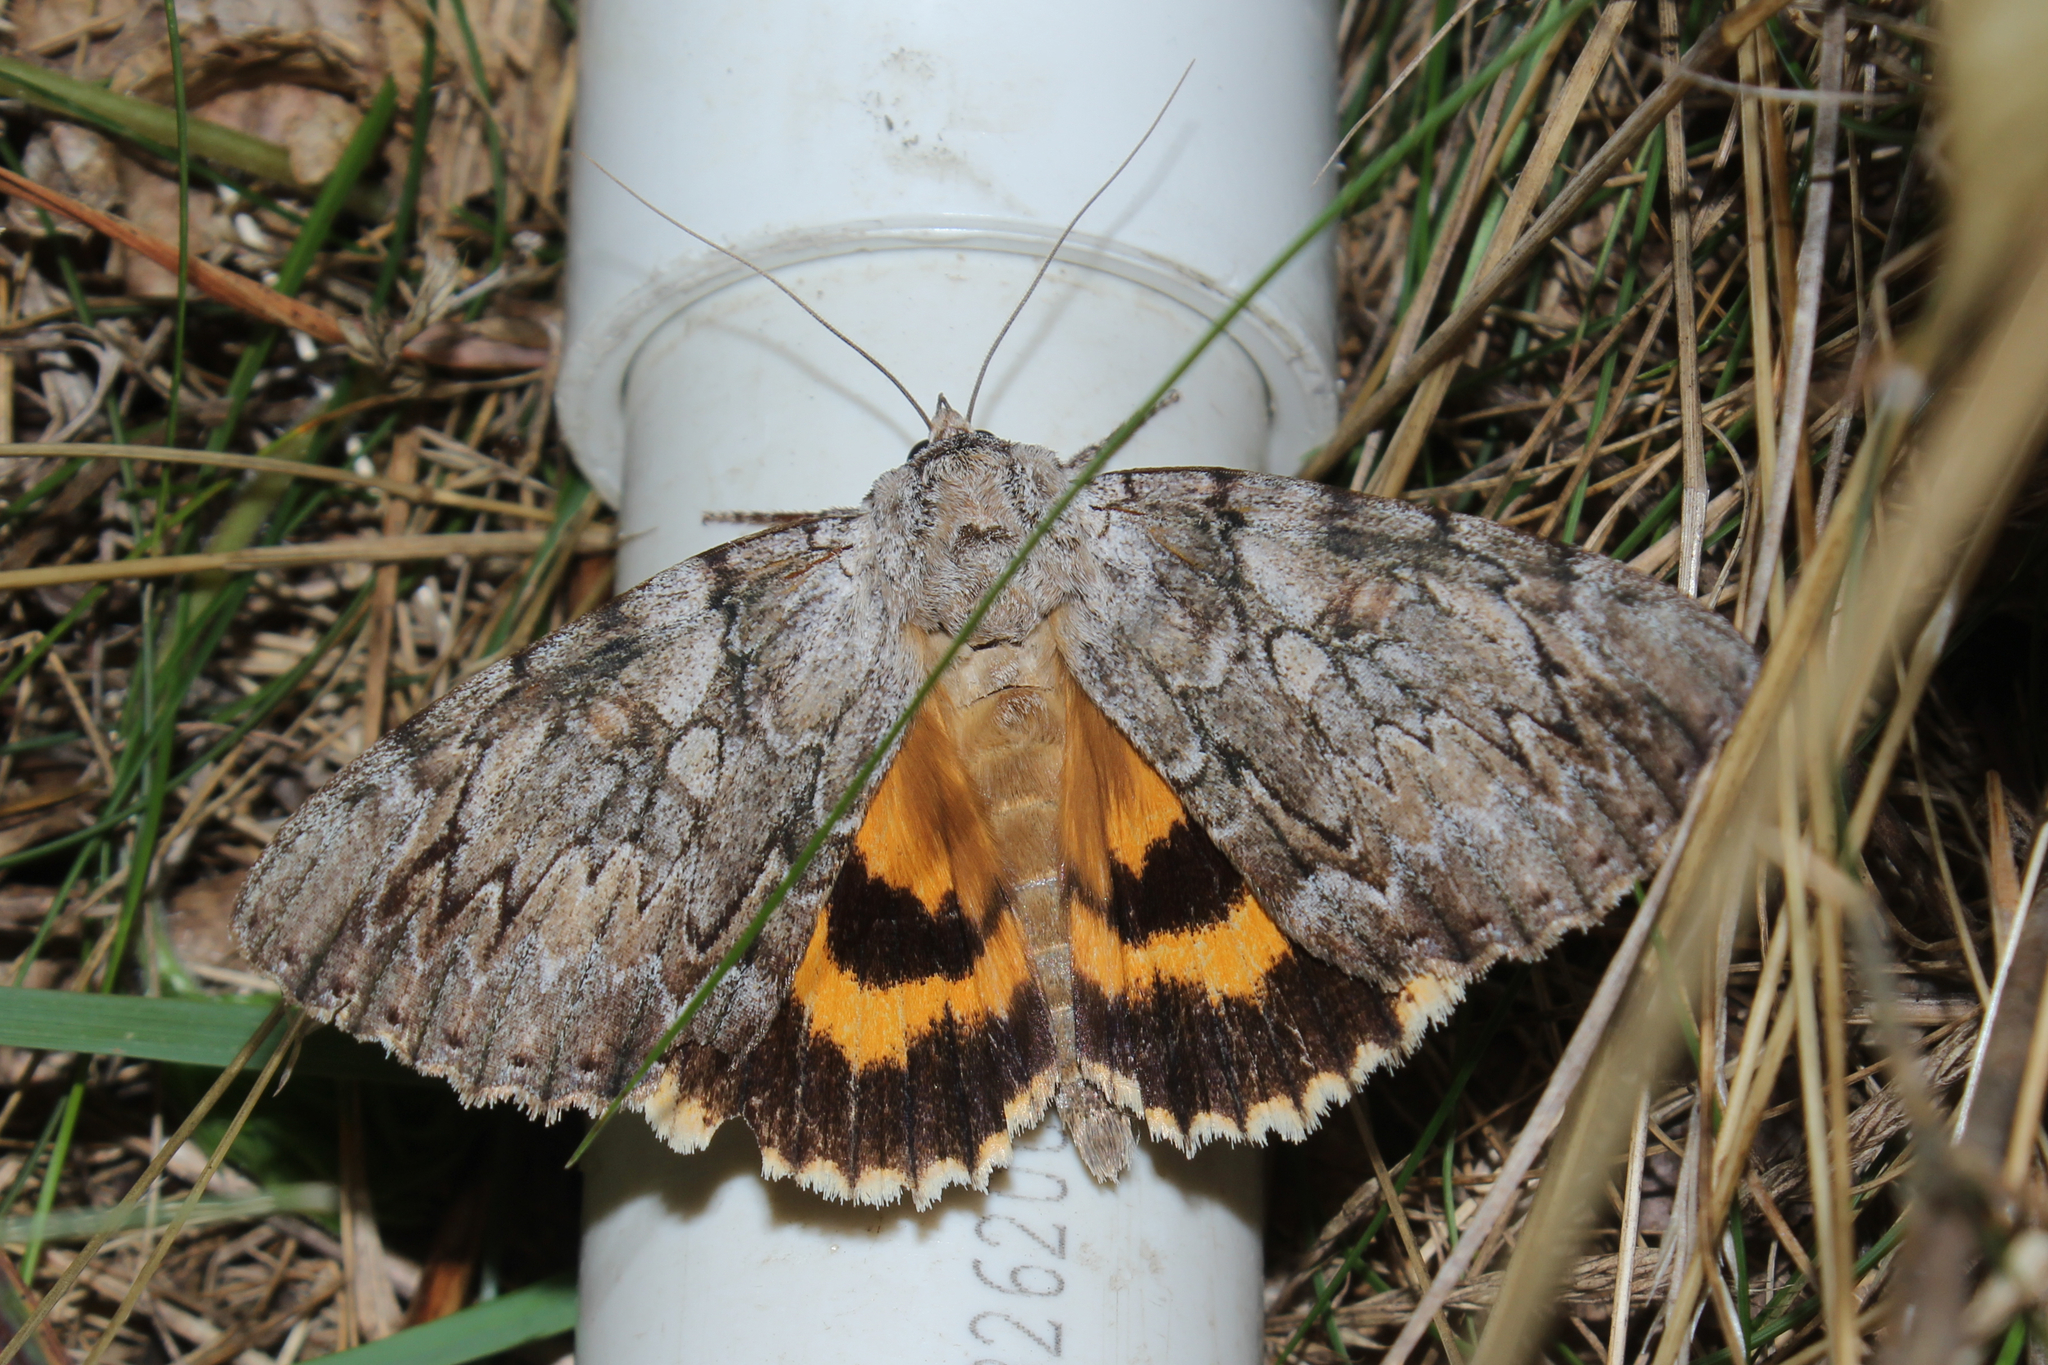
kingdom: Animalia
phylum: Arthropoda
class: Insecta
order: Lepidoptera
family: Erebidae
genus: Catocala
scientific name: Catocala subnata
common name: Youthful underwing
